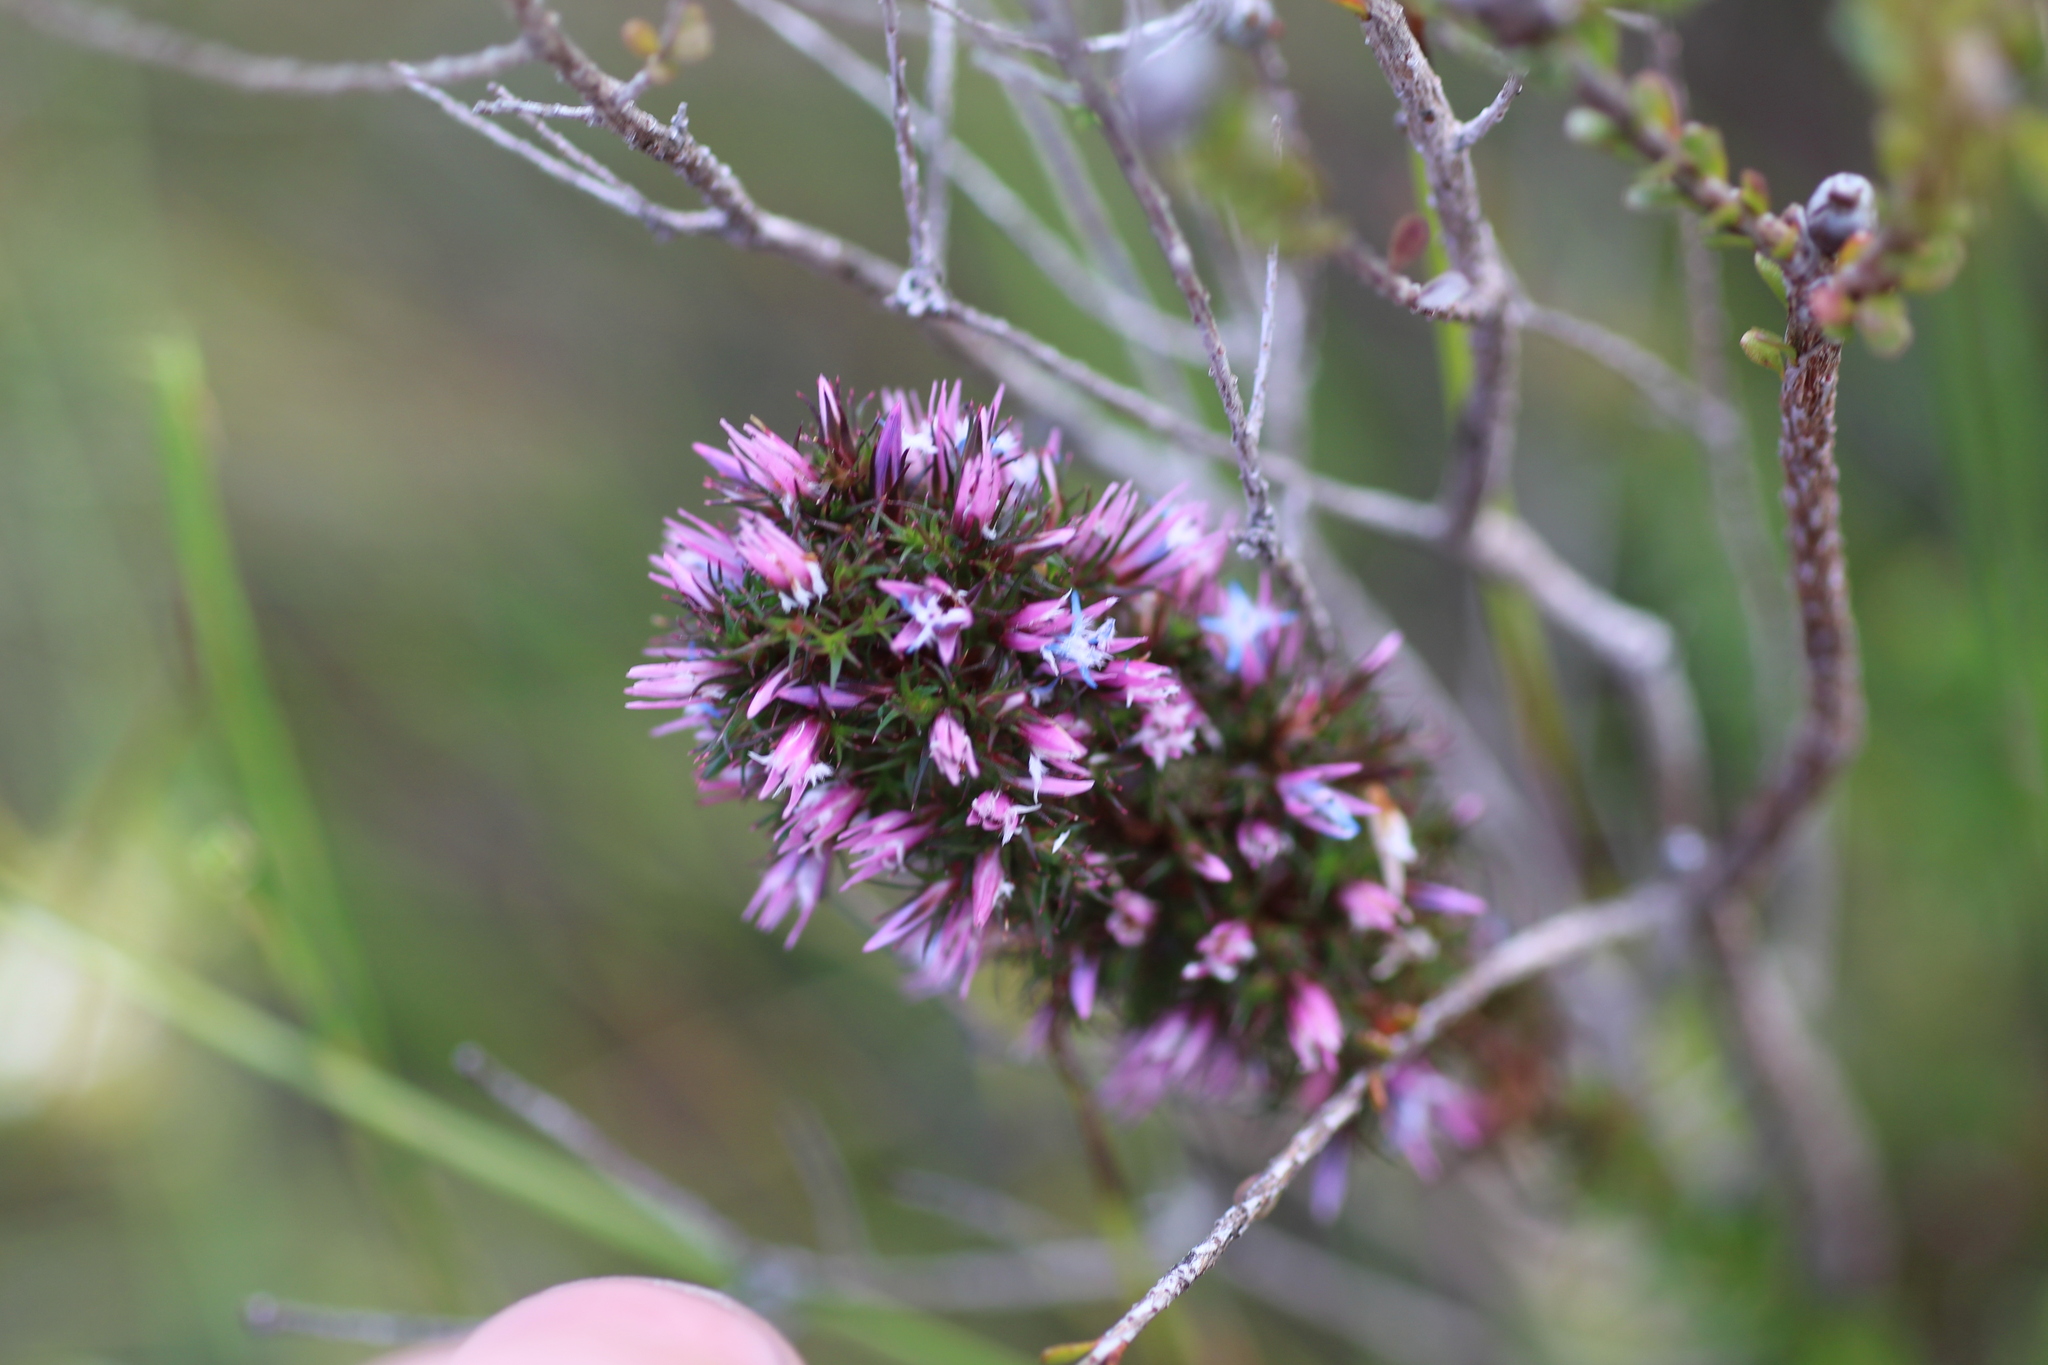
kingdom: Plantae
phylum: Tracheophyta
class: Magnoliopsida
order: Ericales
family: Ericaceae
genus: Andersonia
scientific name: Andersonia caerulea
